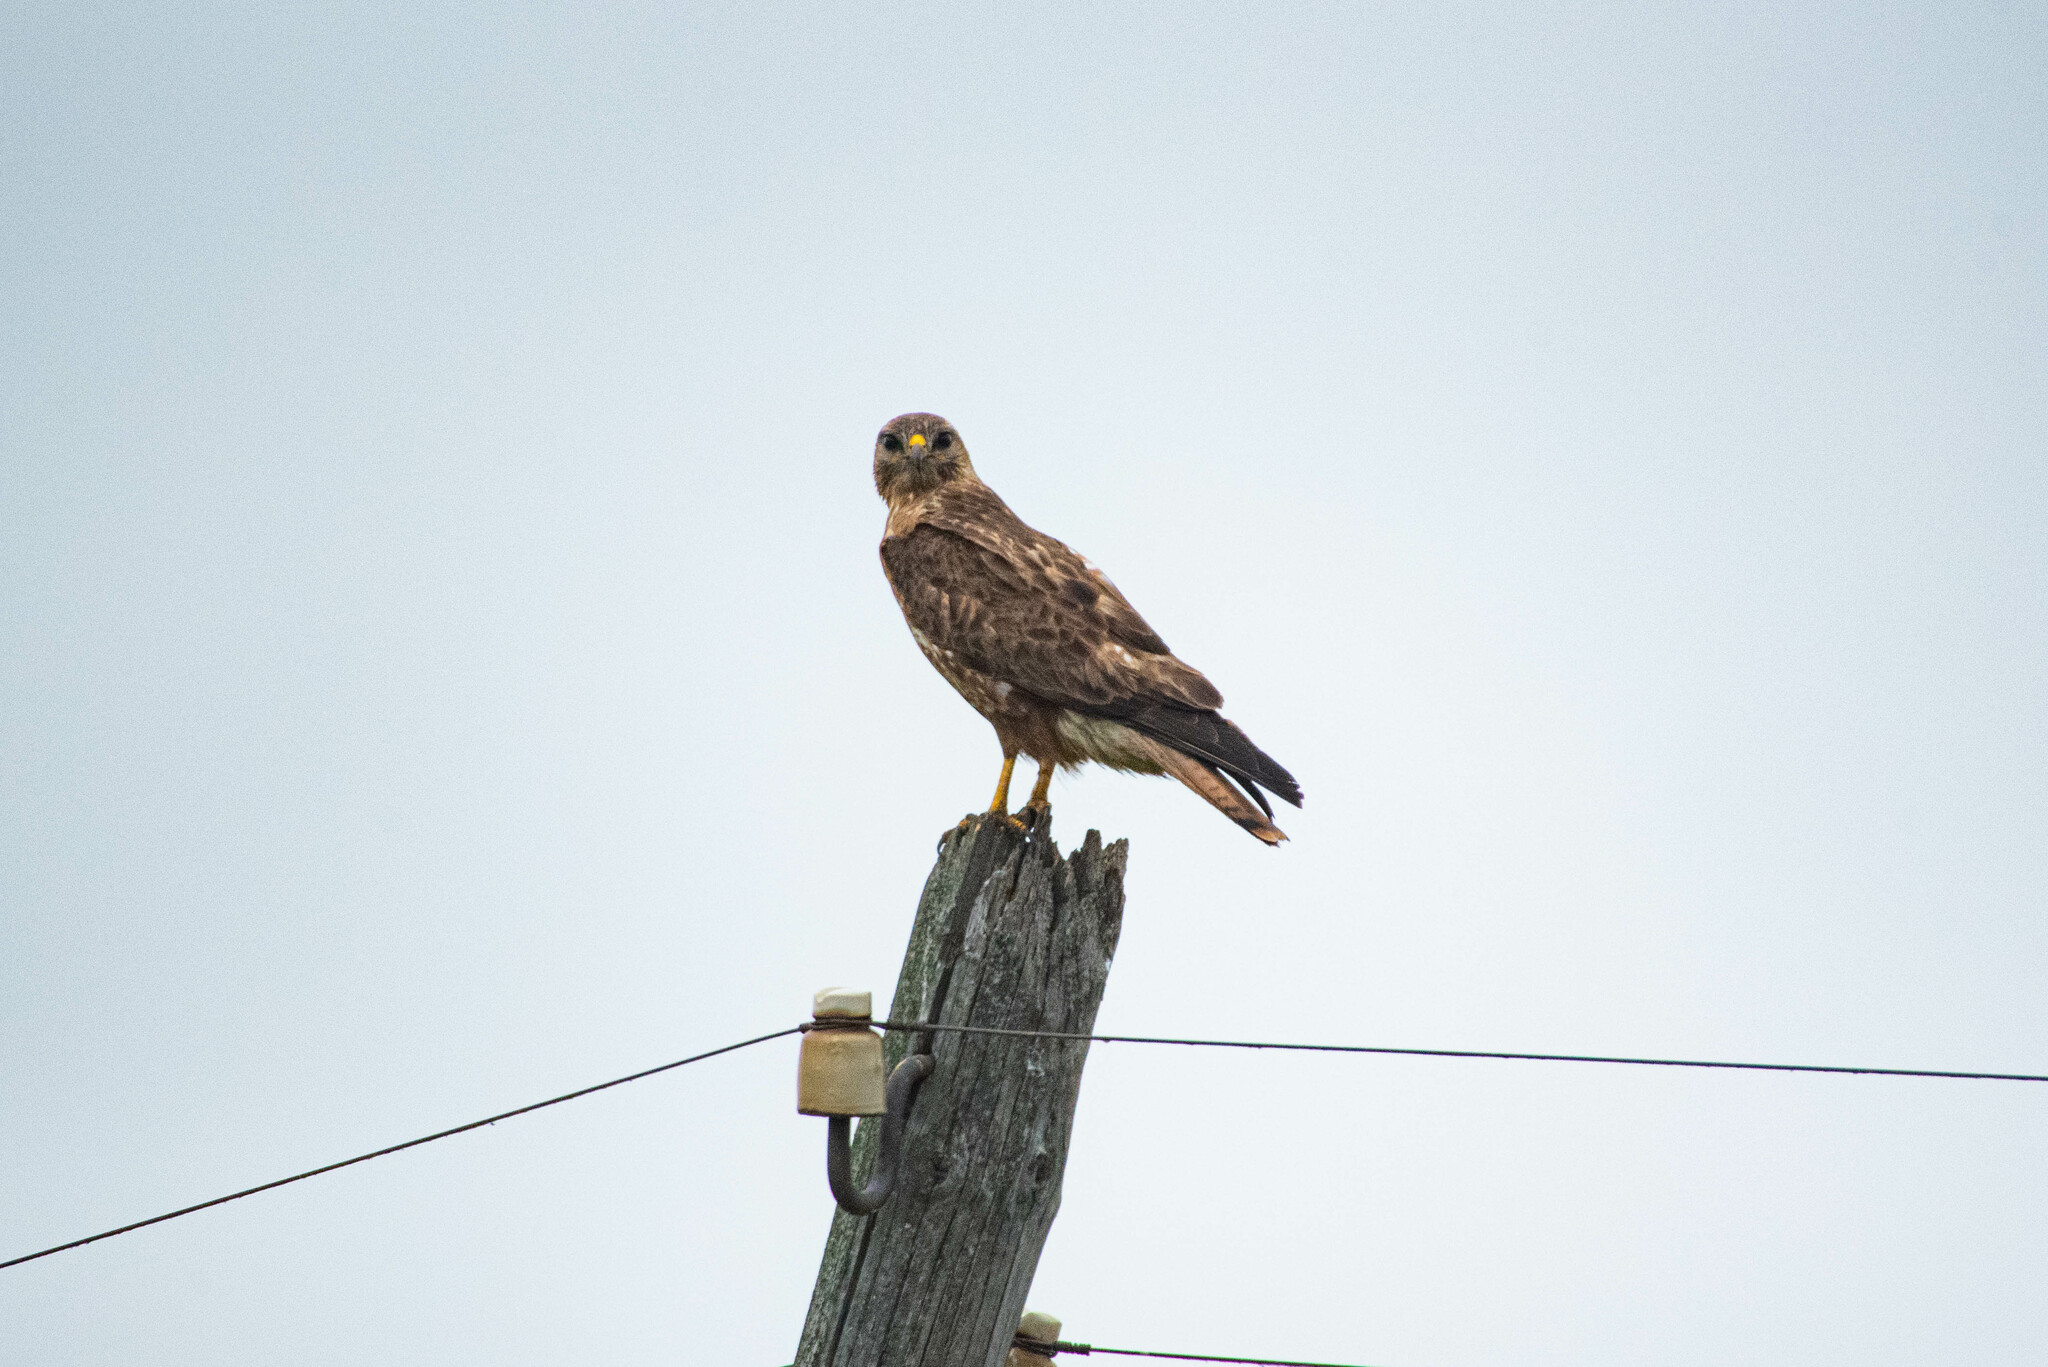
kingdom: Animalia
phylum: Chordata
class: Aves
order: Accipitriformes
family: Accipitridae
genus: Buteo
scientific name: Buteo buteo
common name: Common buzzard
